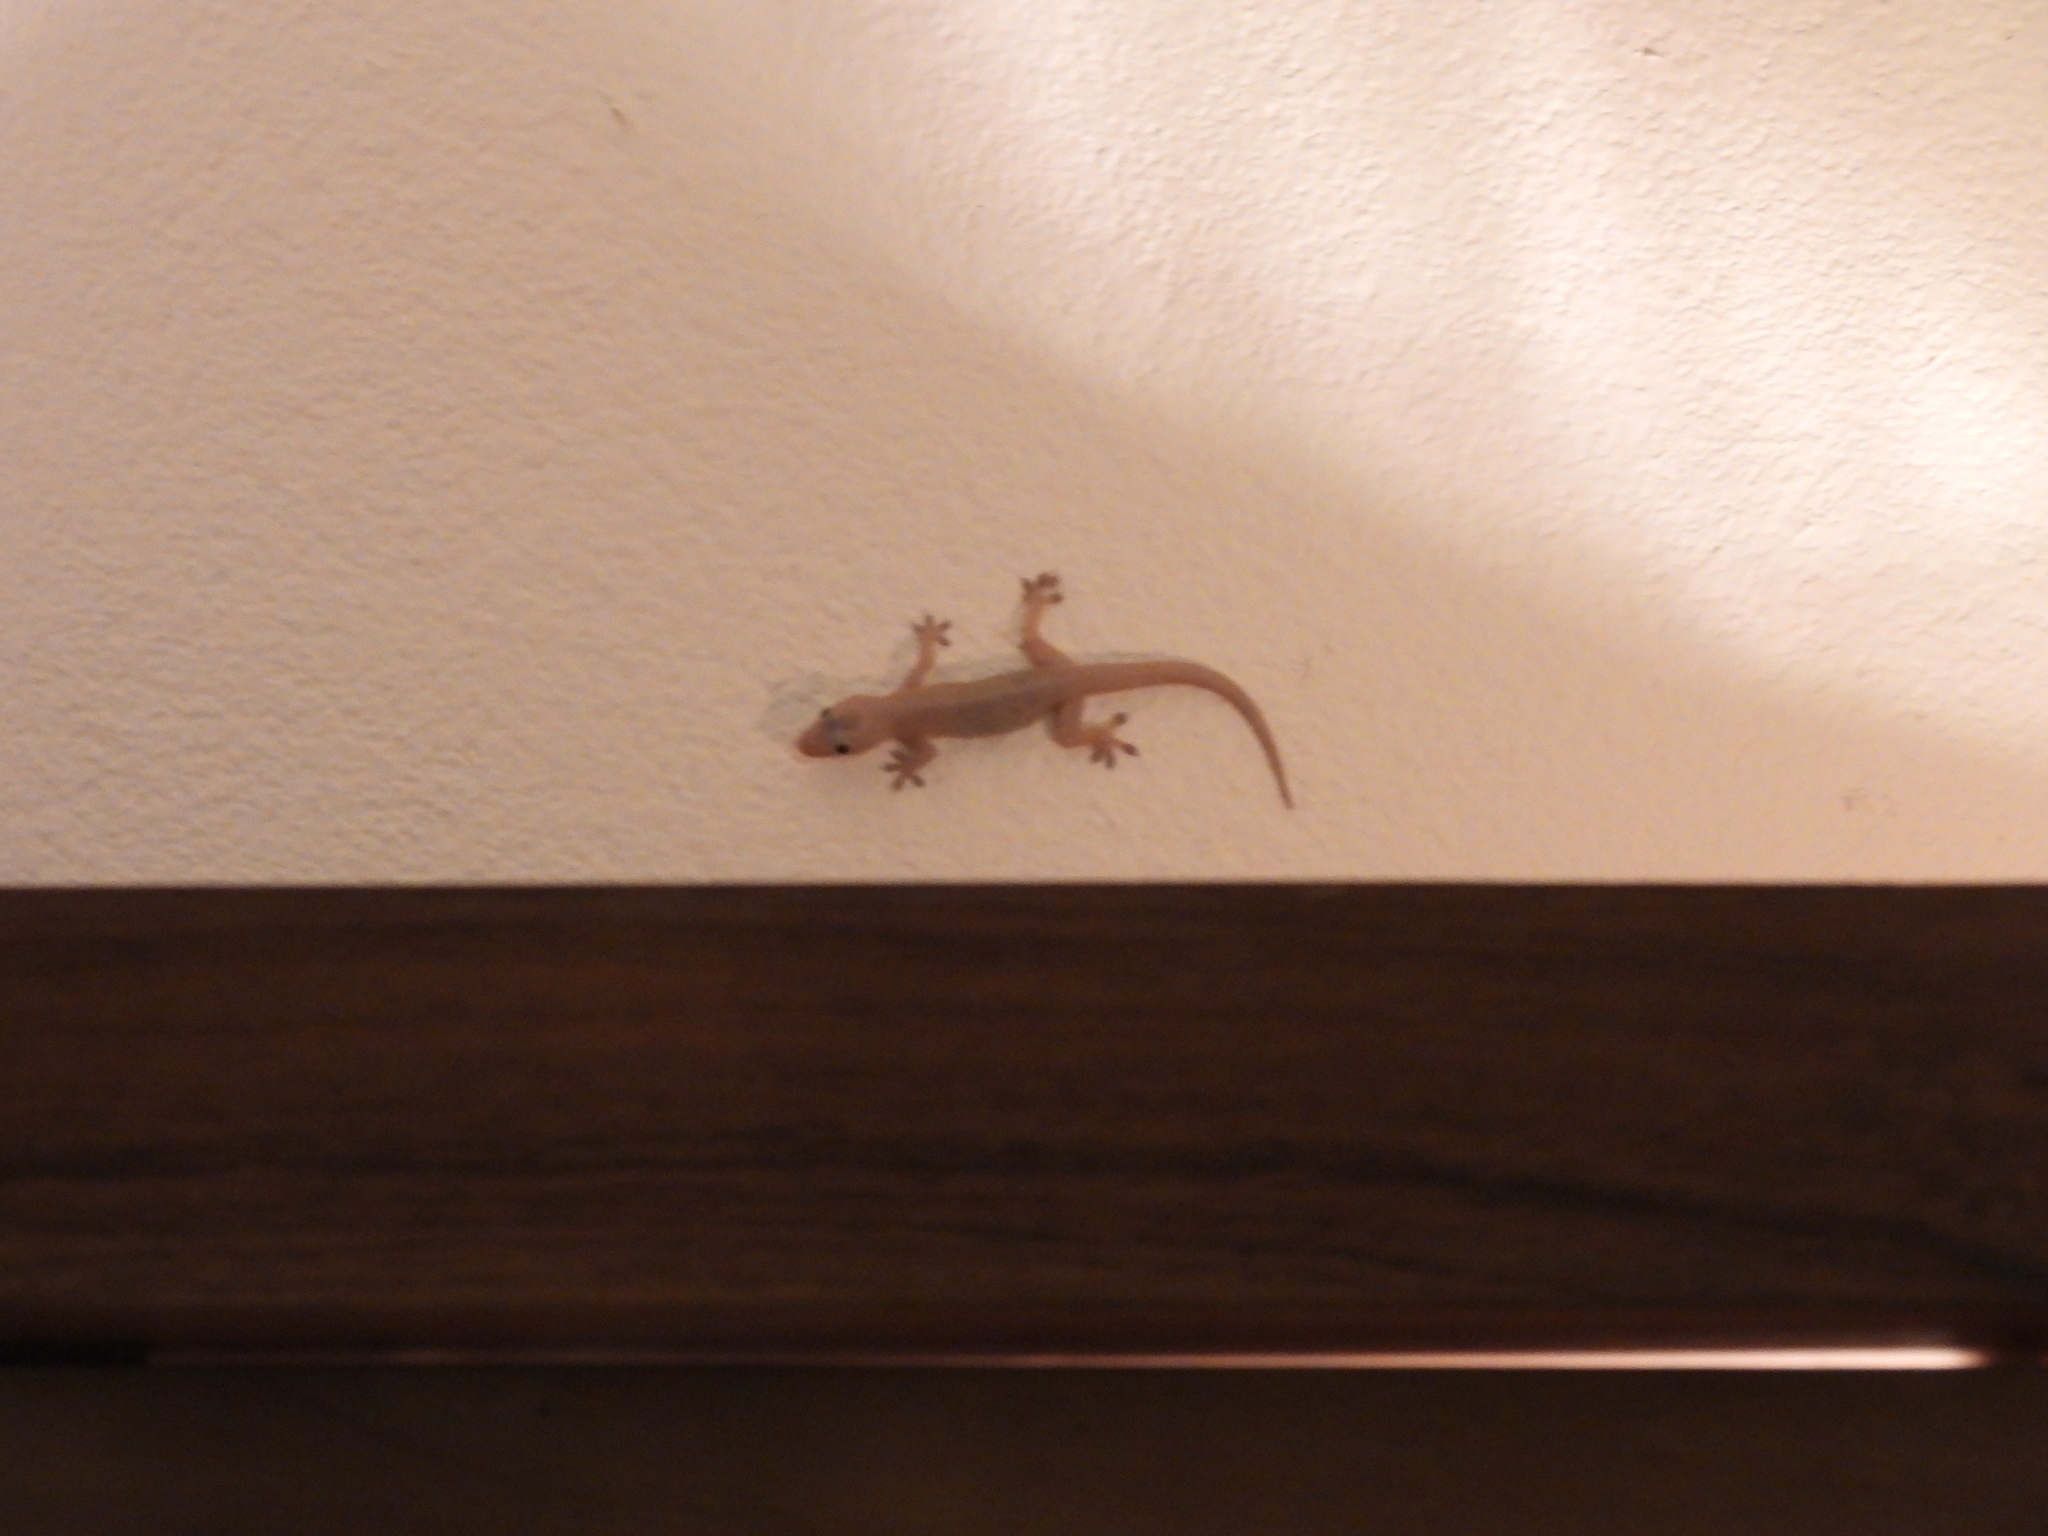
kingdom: Animalia
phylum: Chordata
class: Squamata
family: Gekkonidae
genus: Hemidactylus
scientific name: Hemidactylus frenatus
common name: Common house gecko
